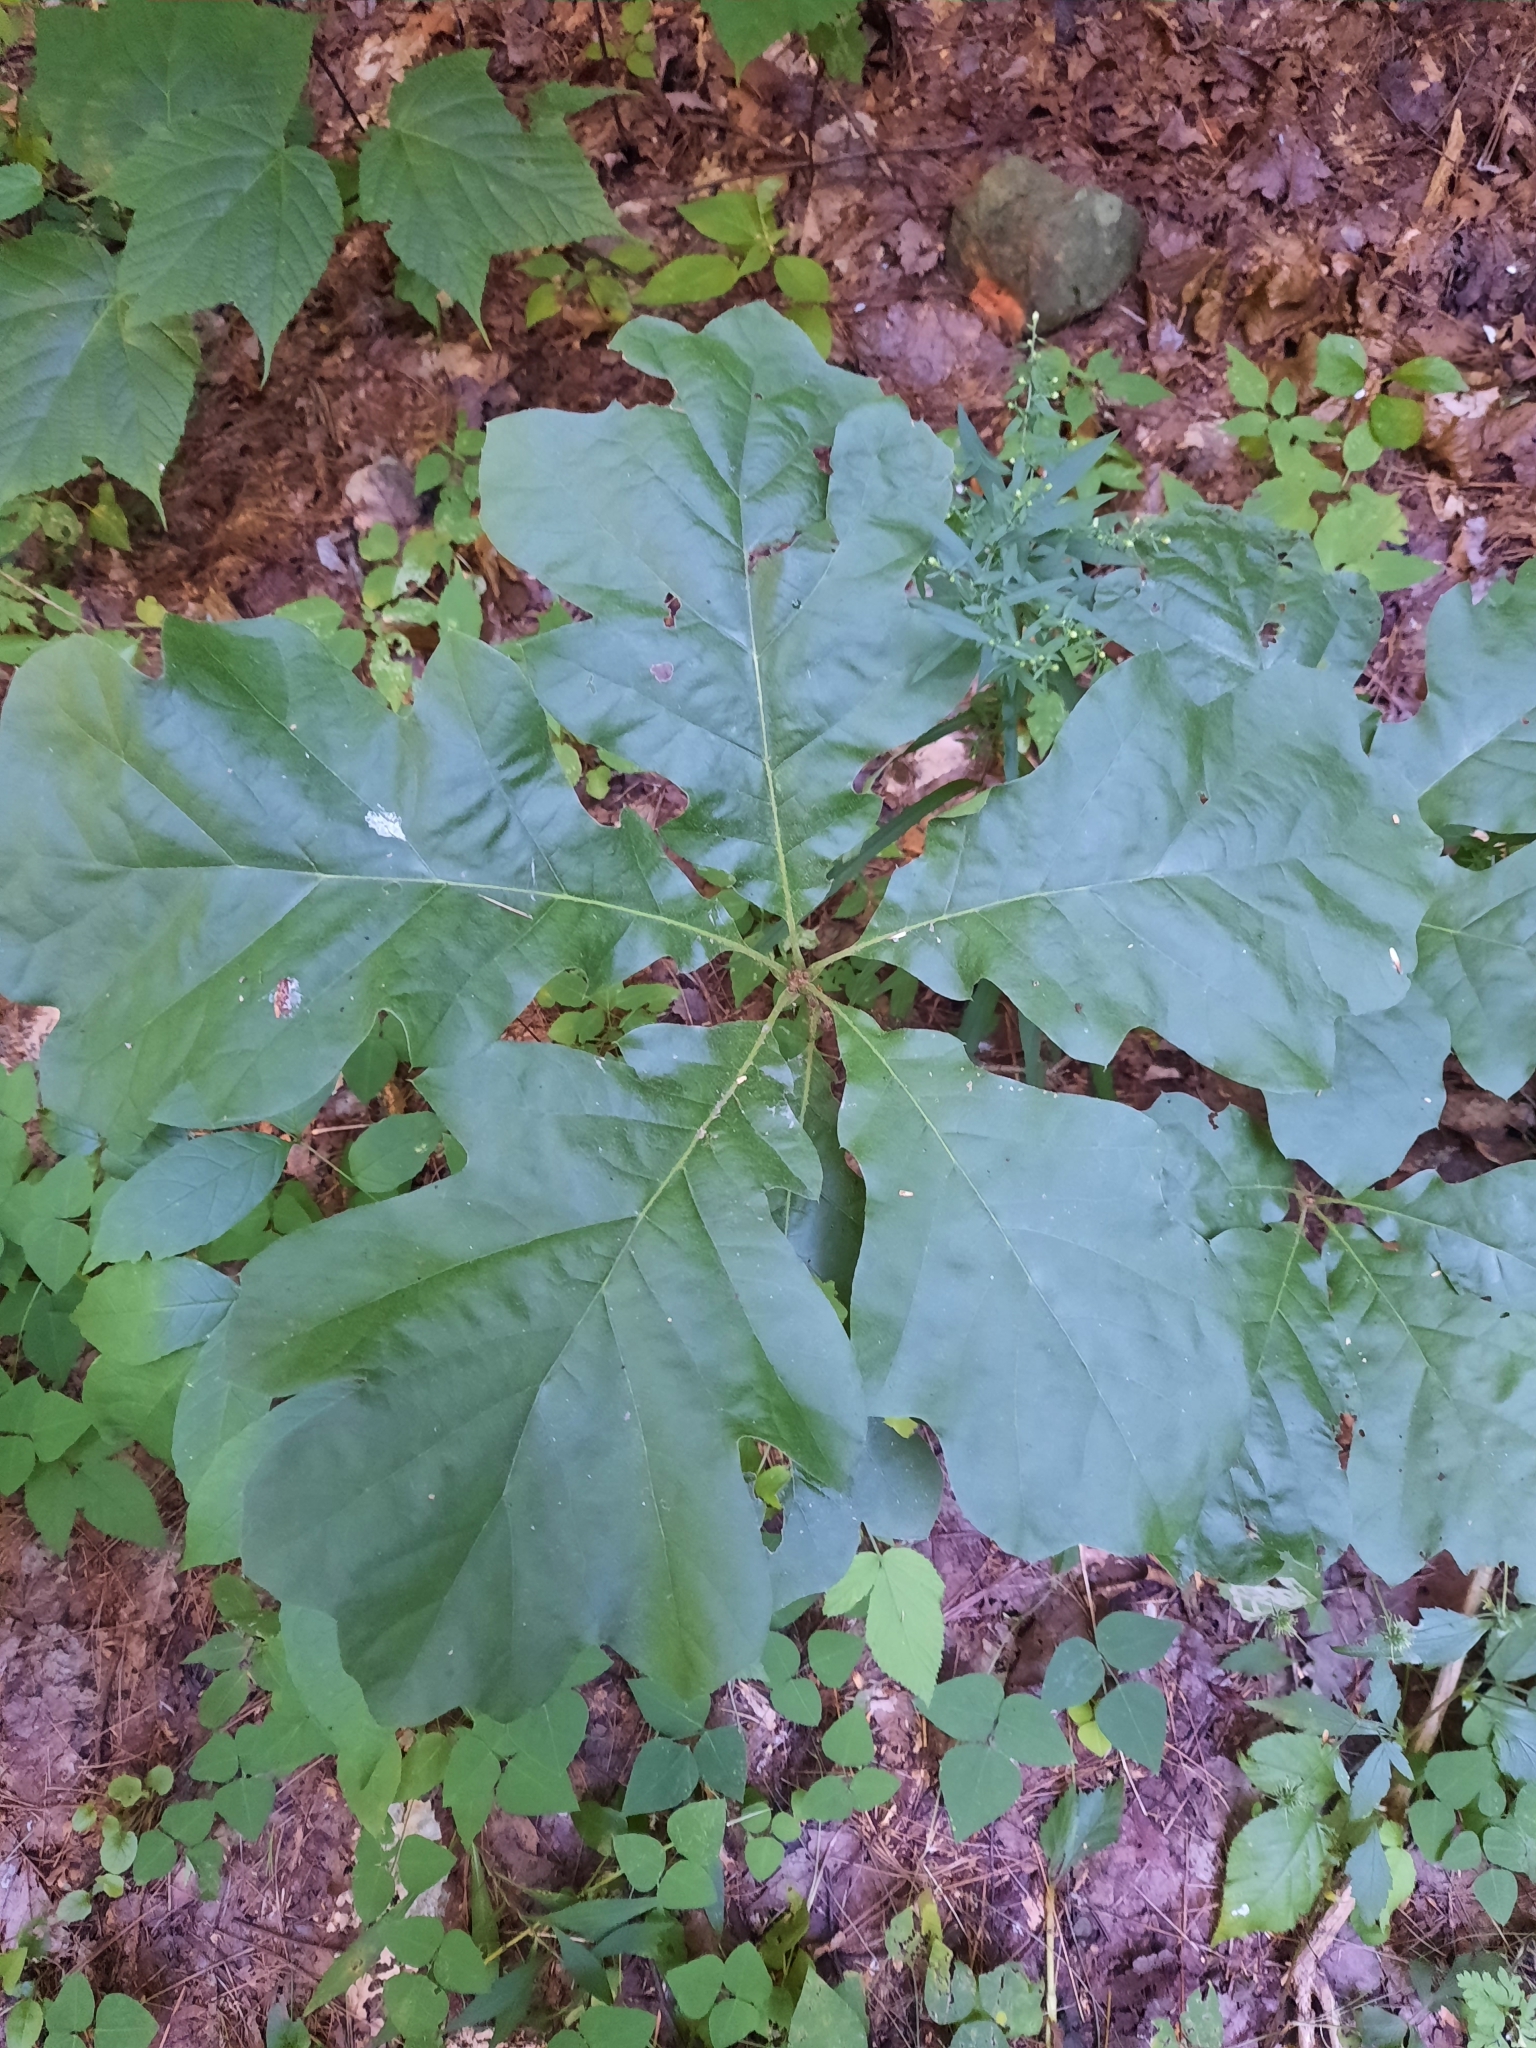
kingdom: Plantae
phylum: Tracheophyta
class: Magnoliopsida
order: Fagales
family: Fagaceae
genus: Quercus
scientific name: Quercus velutina
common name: Black oak
